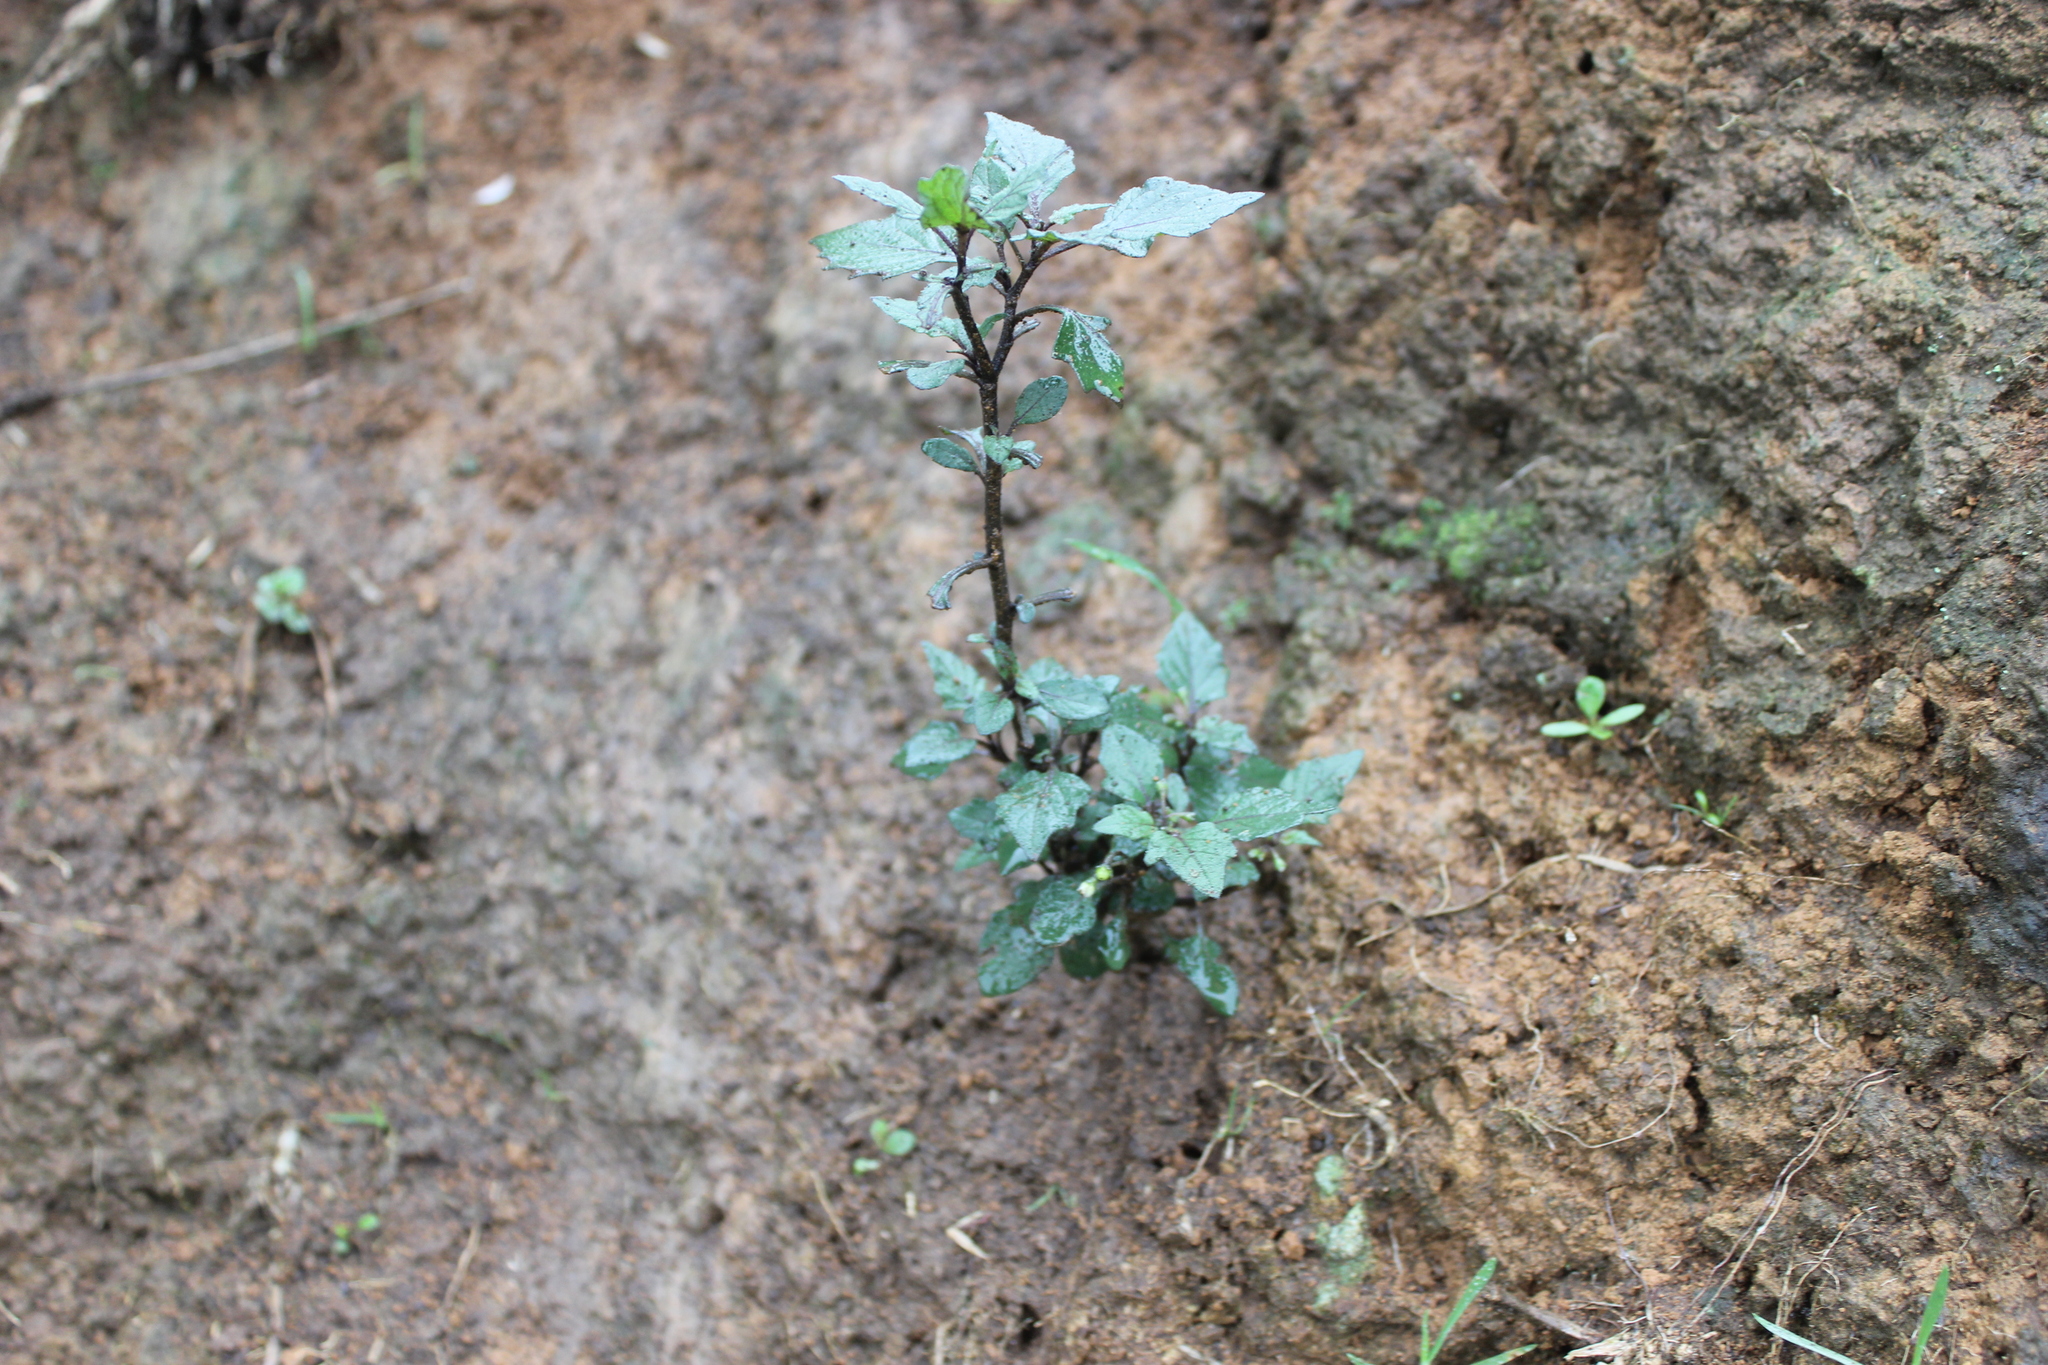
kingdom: Plantae
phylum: Tracheophyta
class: Magnoliopsida
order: Solanales
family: Solanaceae
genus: Solanum
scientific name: Solanum nigrum
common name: Black nightshade
